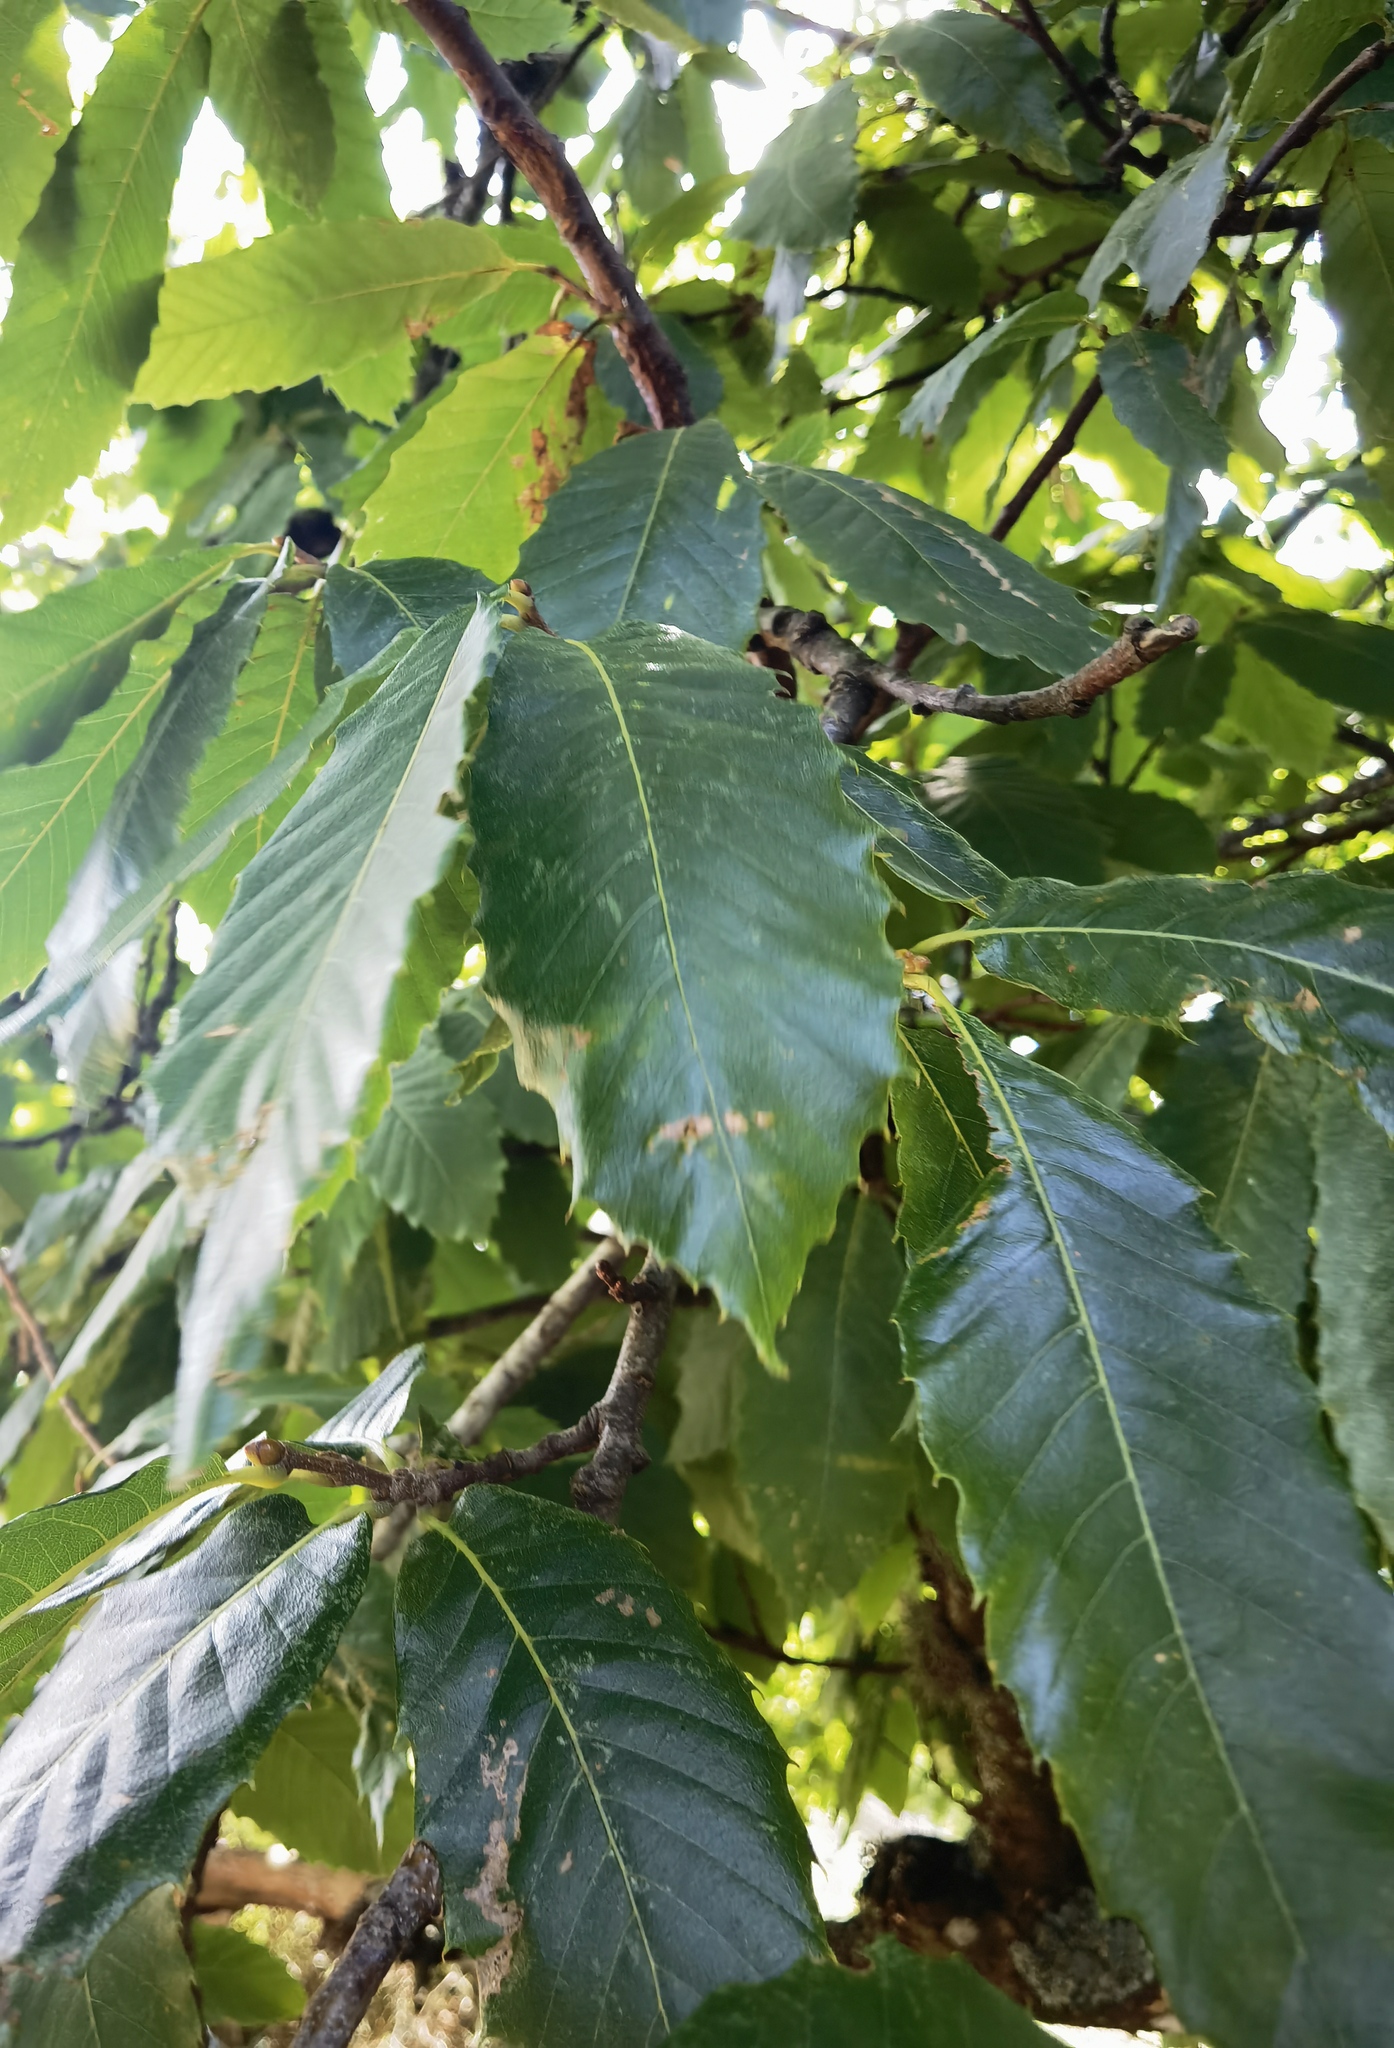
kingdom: Plantae
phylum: Tracheophyta
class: Magnoliopsida
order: Fagales
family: Fagaceae
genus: Castanea
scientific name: Castanea sativa
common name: Sweet chestnut
